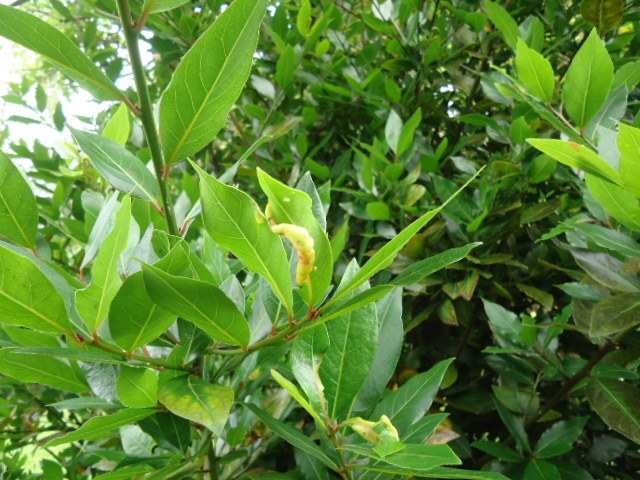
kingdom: Animalia
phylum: Arthropoda
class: Insecta
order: Hemiptera
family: Triozidae
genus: Lauritrioza
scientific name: Lauritrioza alacris
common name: Laurel psyllid
